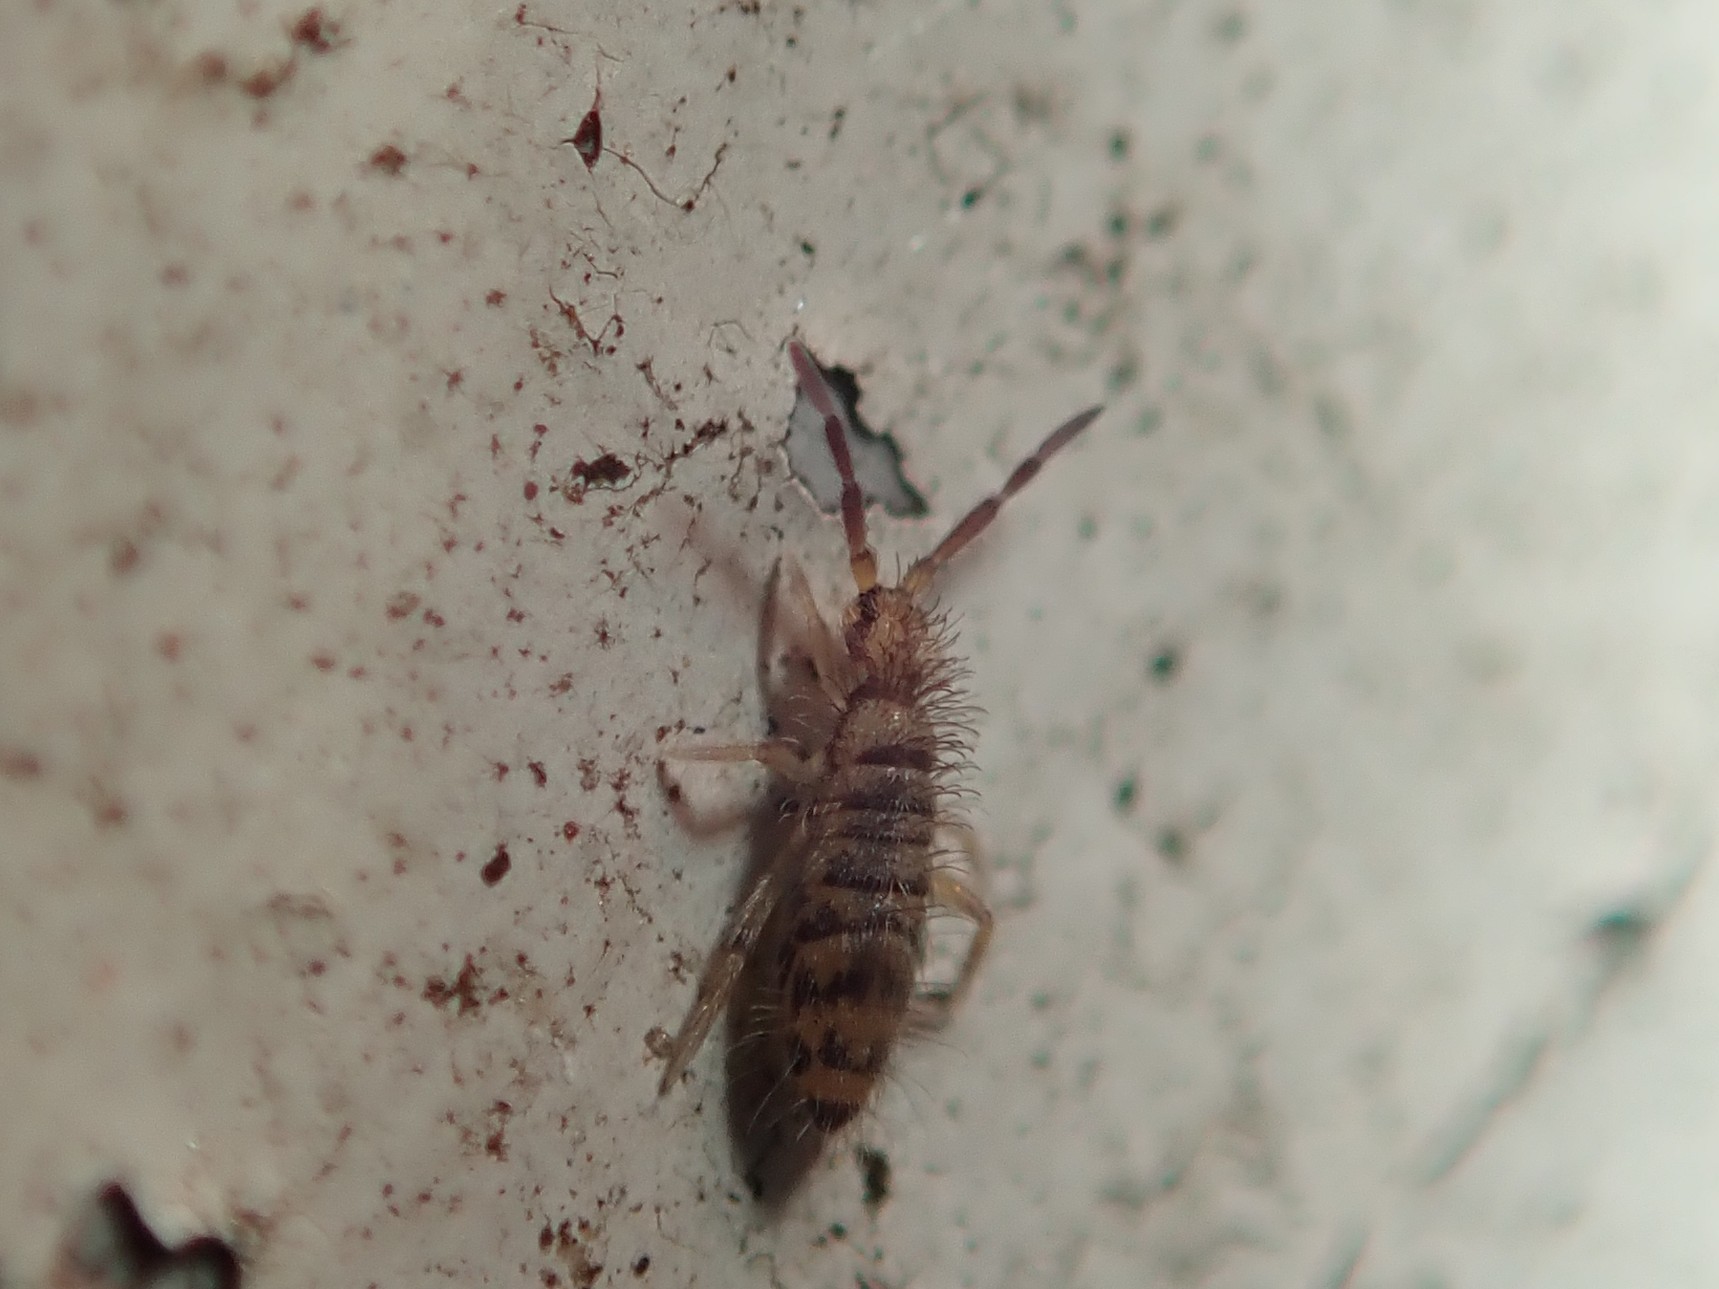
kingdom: Animalia
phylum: Arthropoda
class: Collembola
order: Entomobryomorpha
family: Entomobryidae
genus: Entomobrya
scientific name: Entomobrya multifasciata
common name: Springtail
